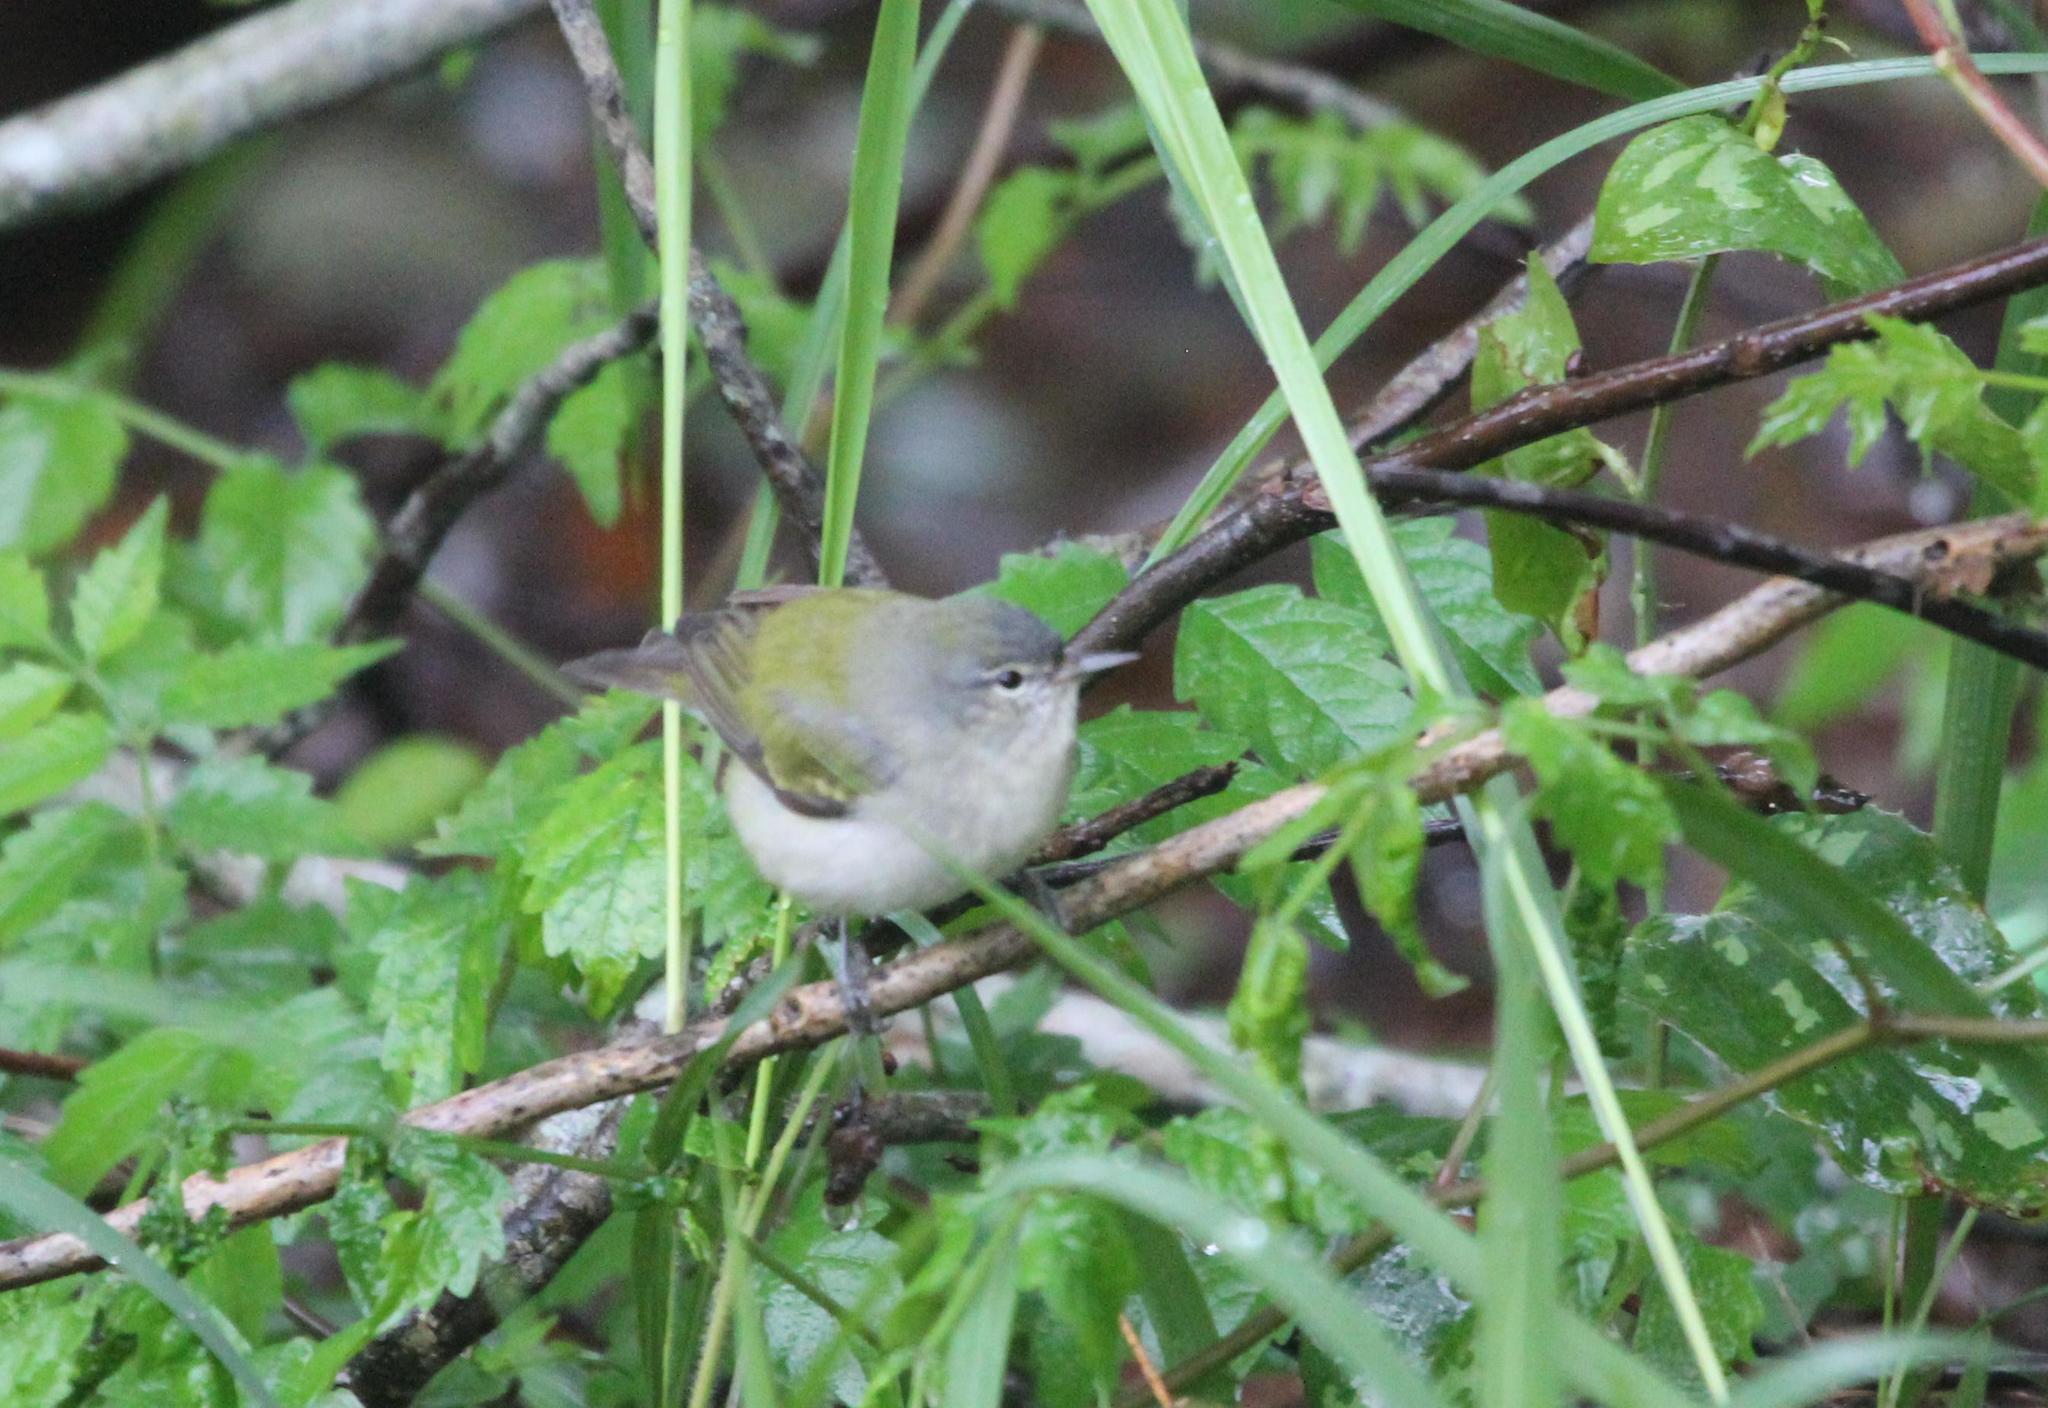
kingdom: Animalia
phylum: Chordata
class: Aves
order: Passeriformes
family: Parulidae
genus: Leiothlypis
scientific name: Leiothlypis peregrina
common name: Tennessee warbler
